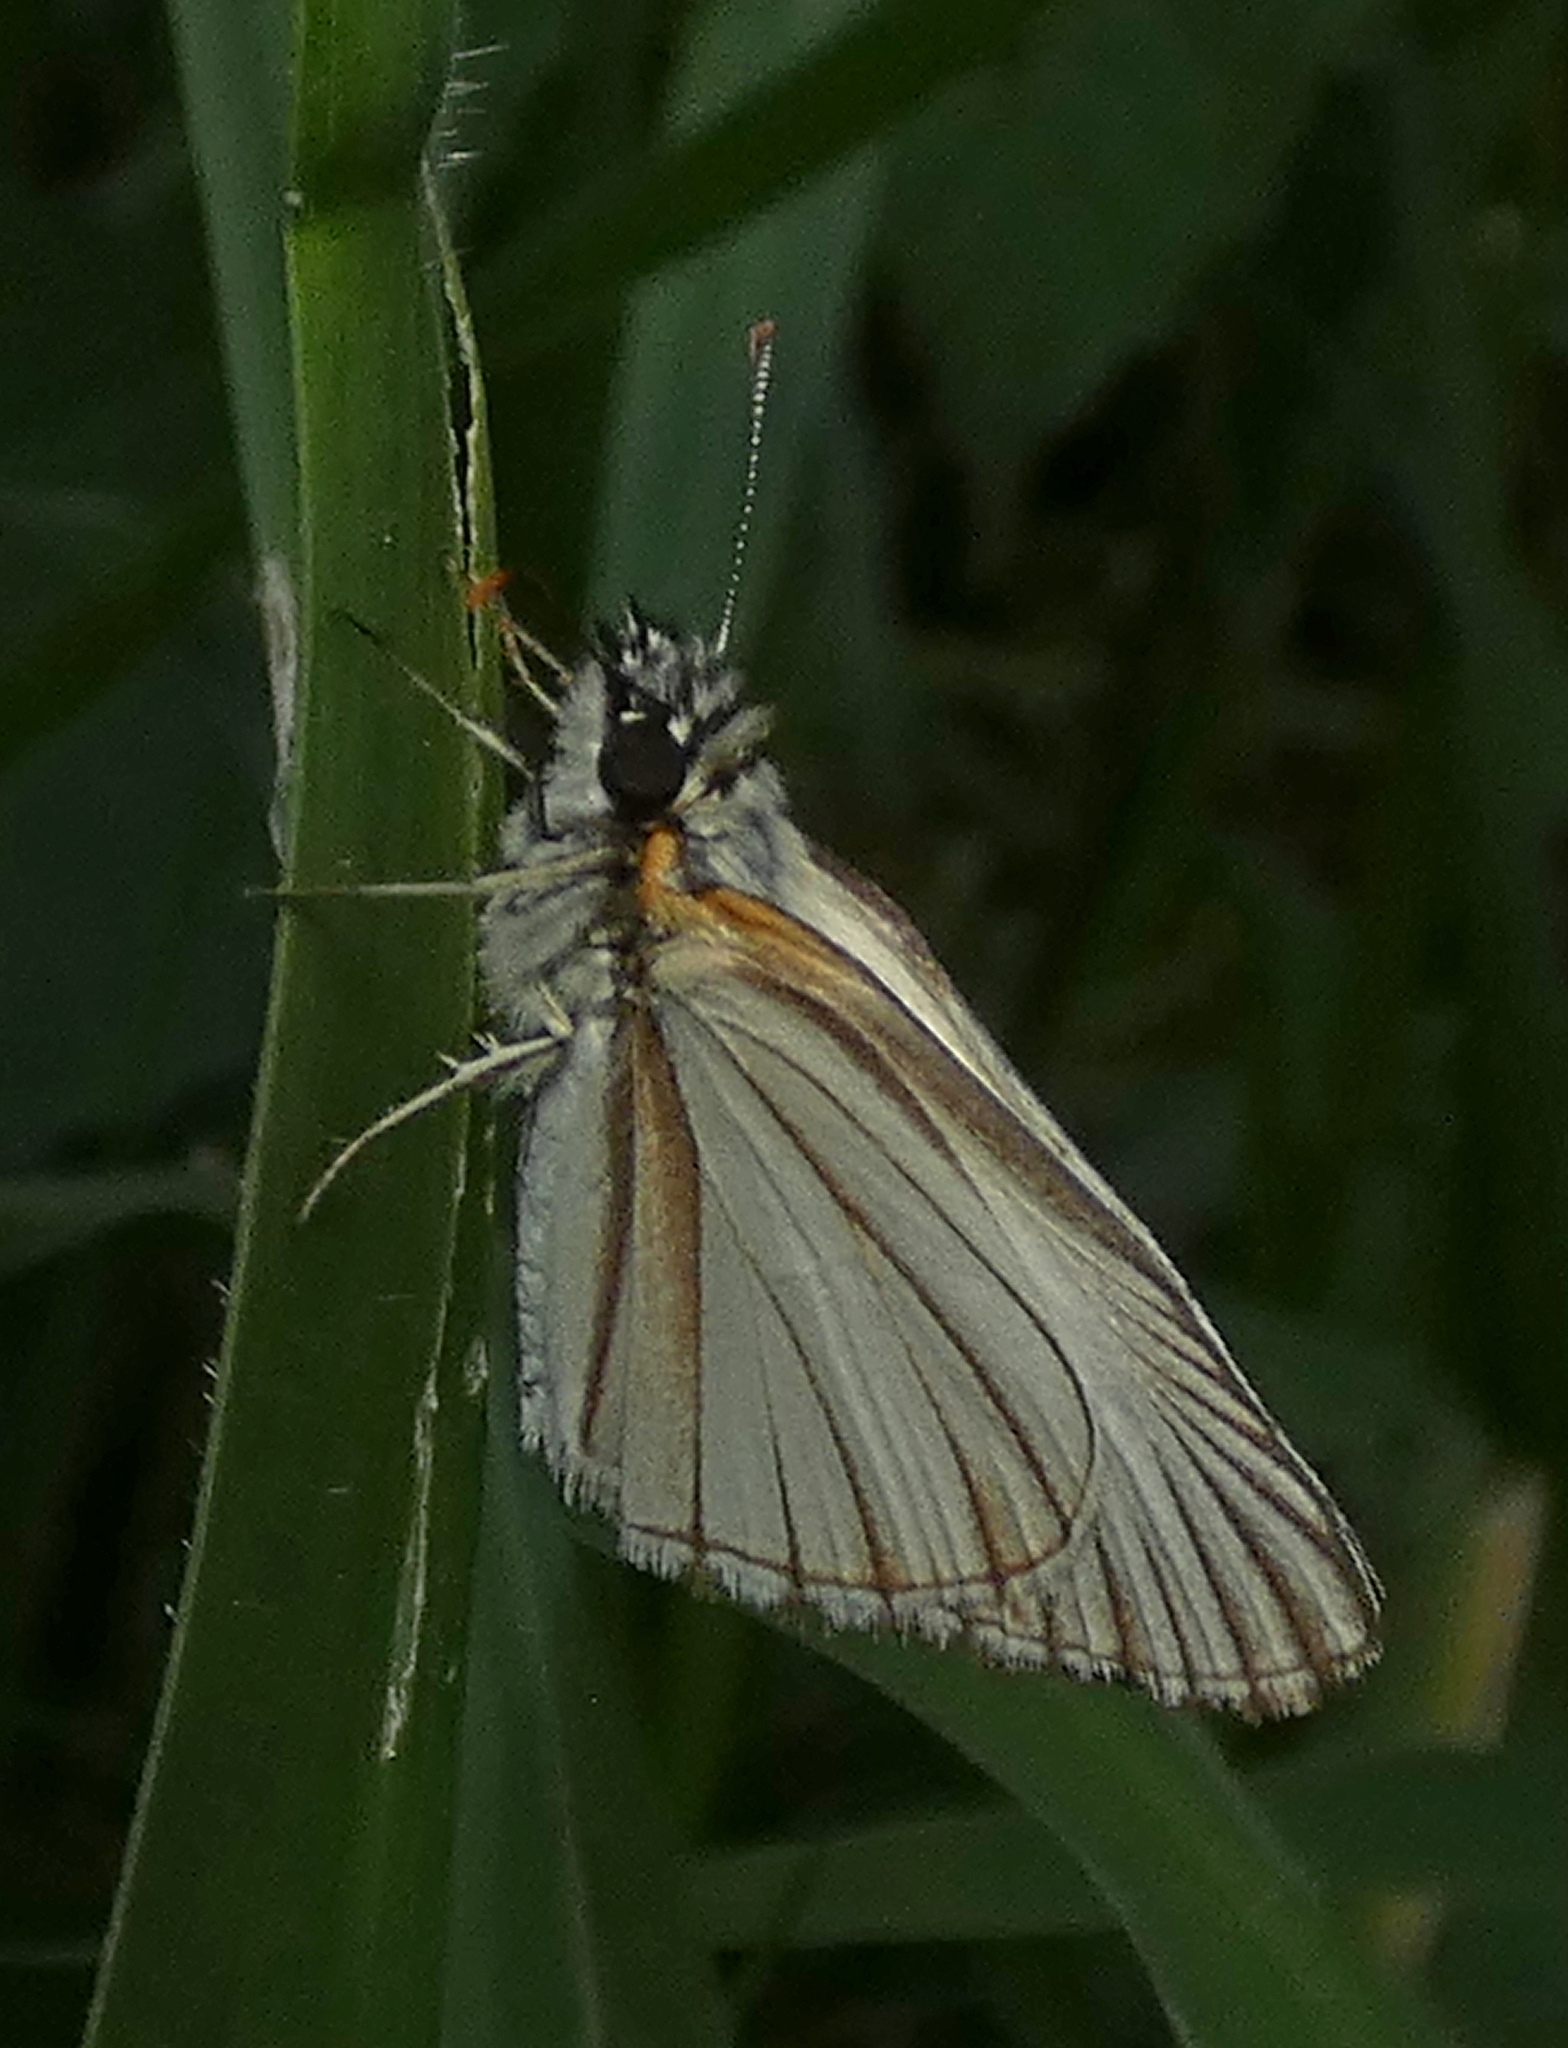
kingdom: Animalia
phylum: Arthropoda
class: Insecta
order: Lepidoptera
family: Hesperiidae
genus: Heliopetes
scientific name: Heliopetes arsalte
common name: Veined white-skipper
